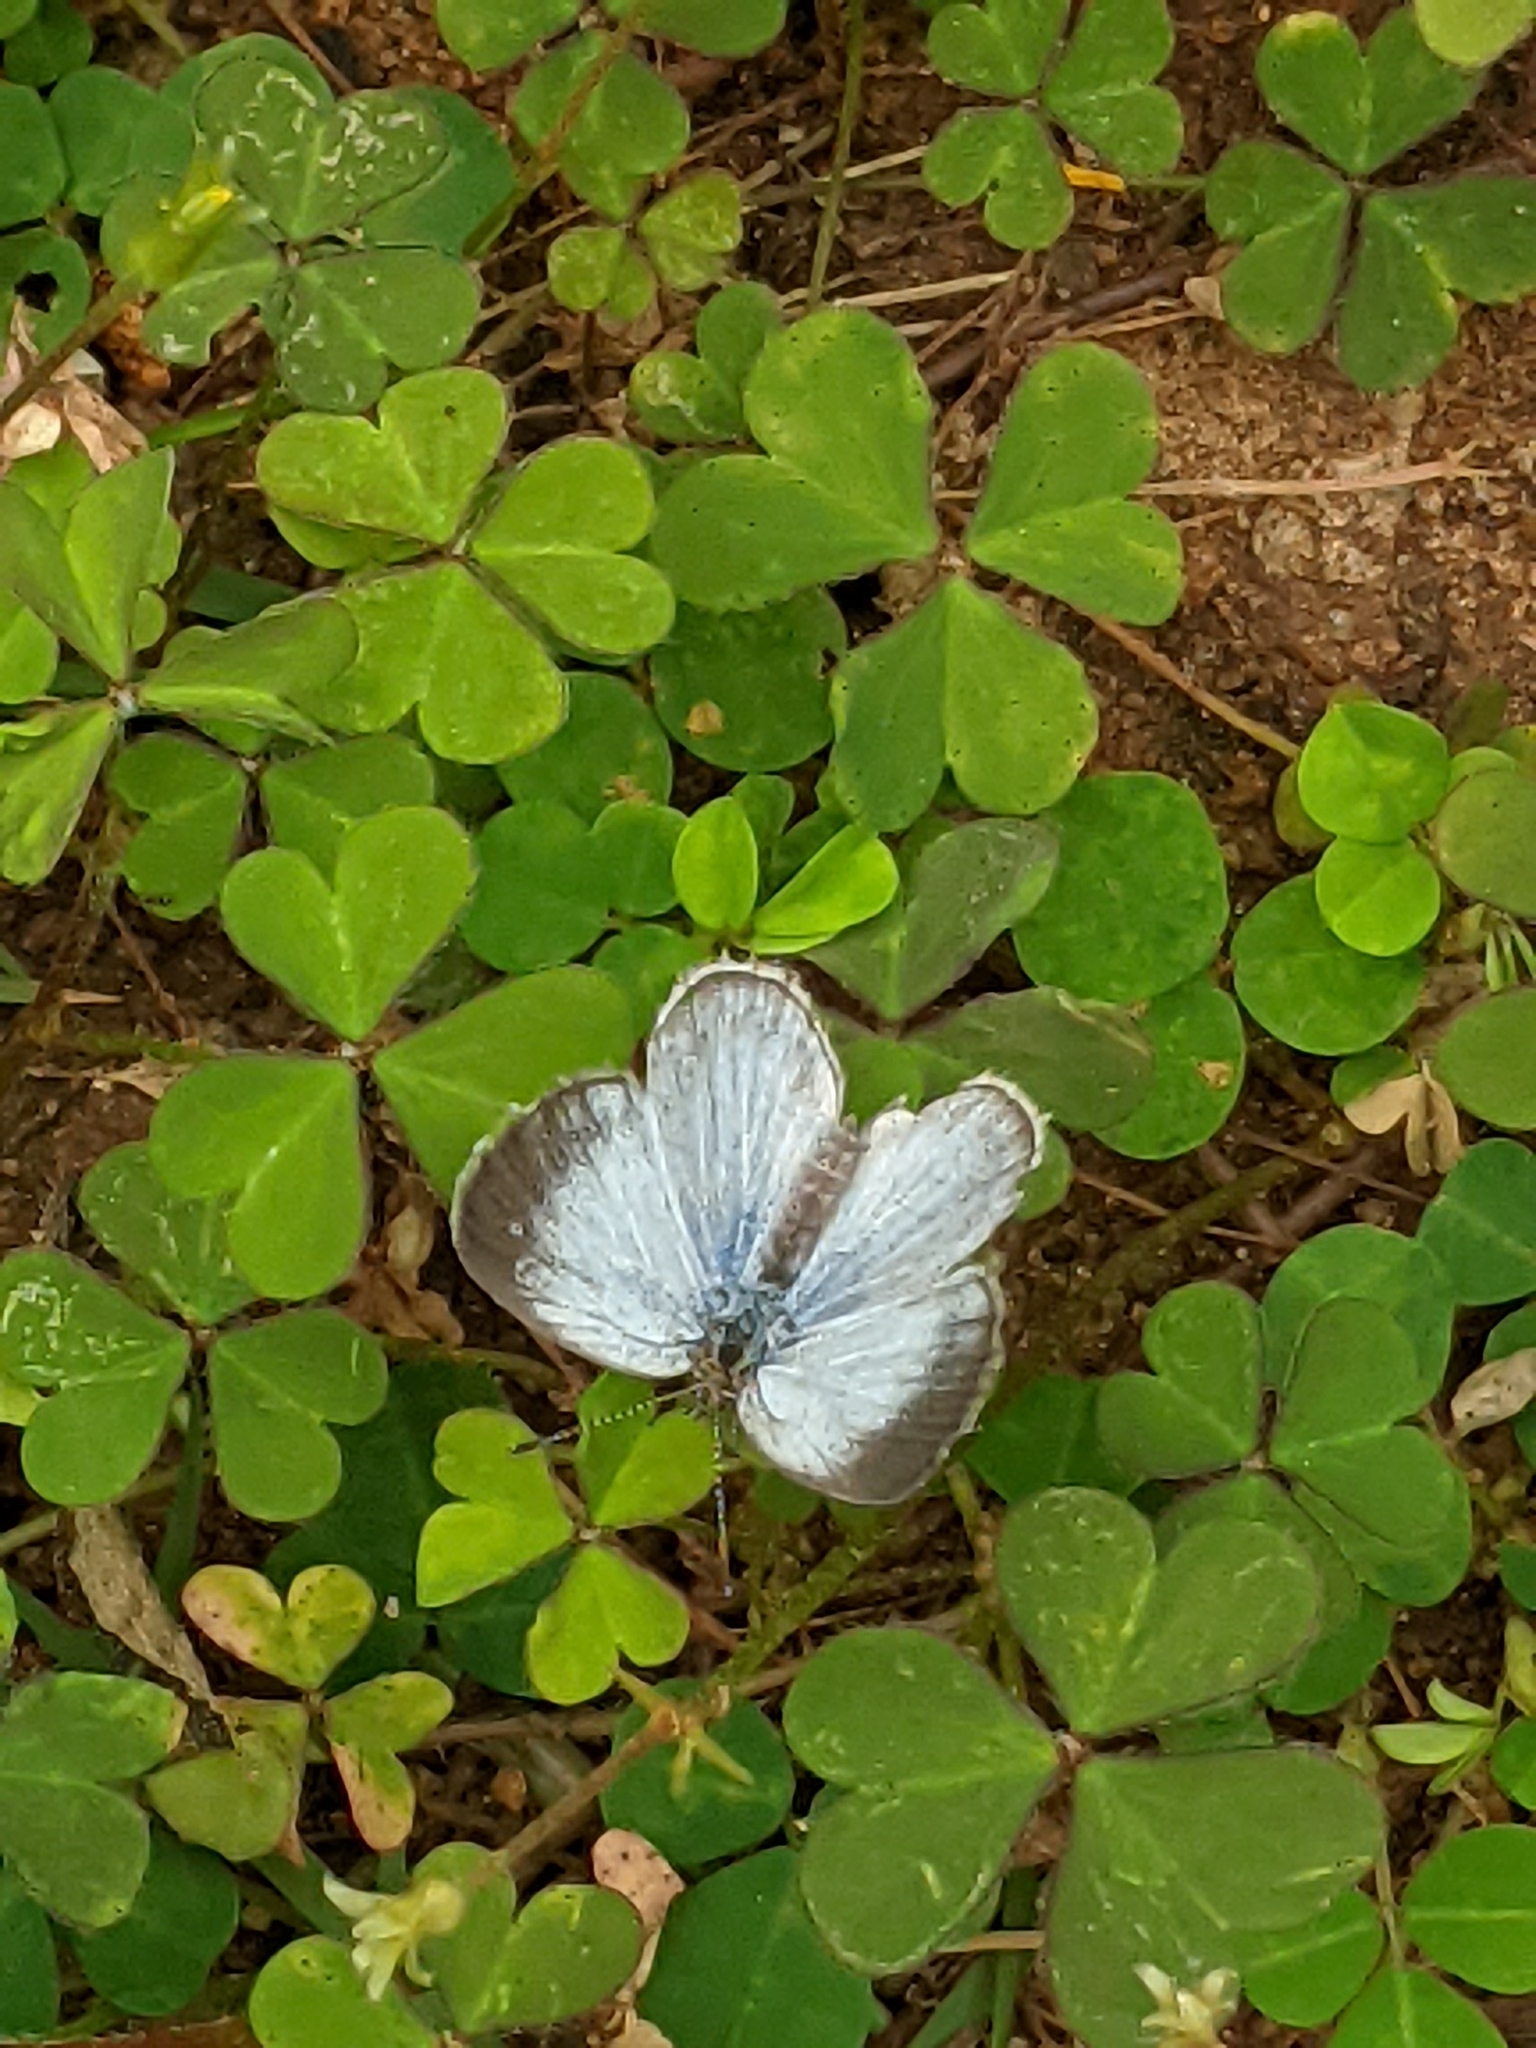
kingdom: Animalia
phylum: Arthropoda
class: Insecta
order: Lepidoptera
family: Lycaenidae
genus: Pseudozizeeria
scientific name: Pseudozizeeria maha
